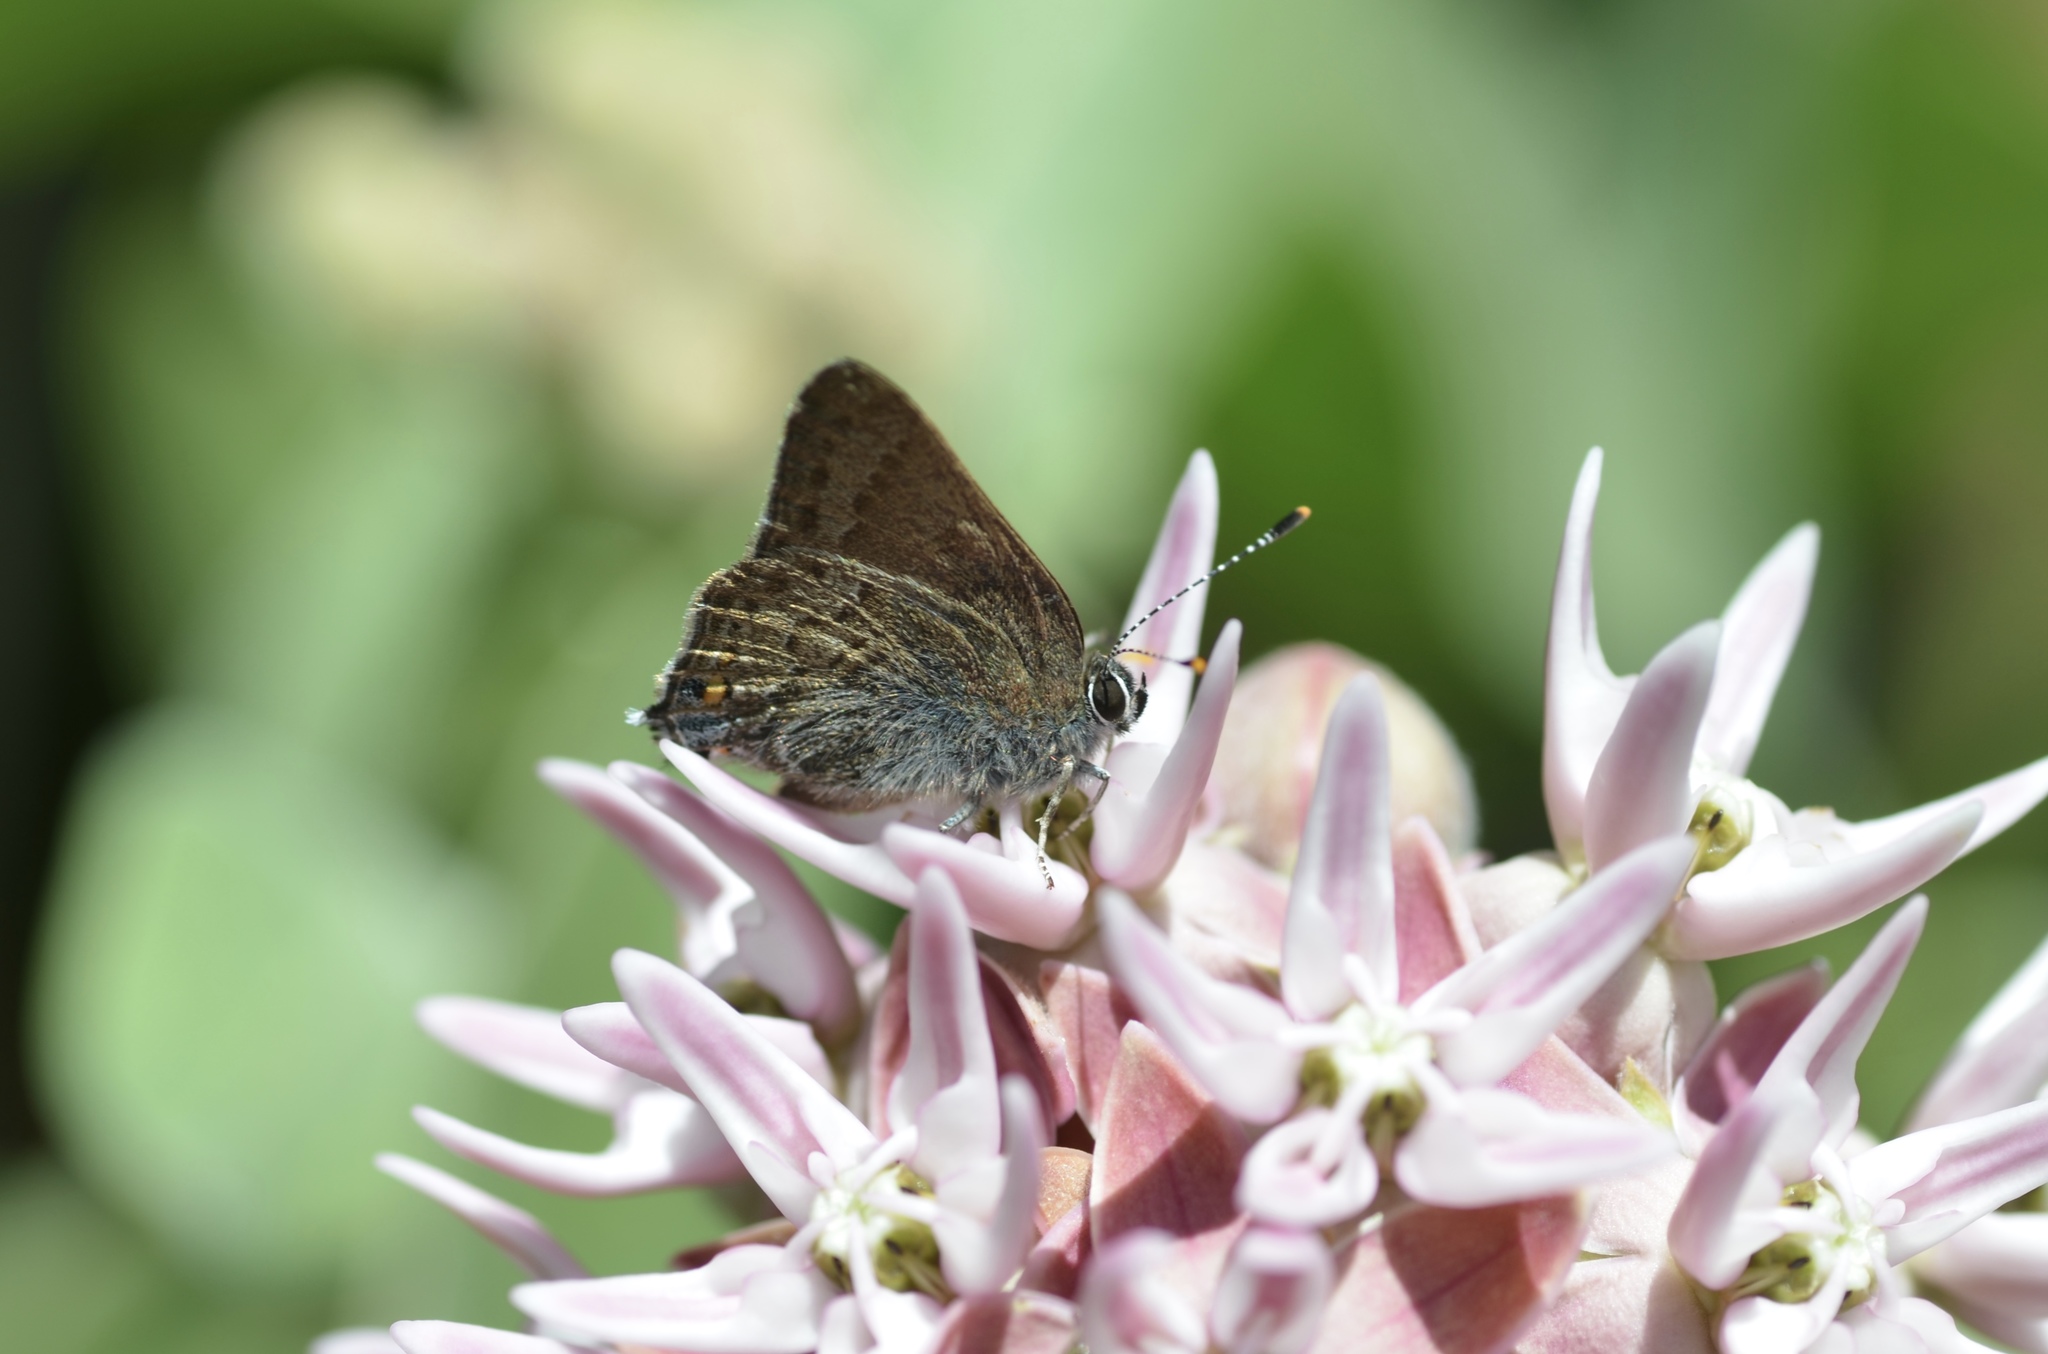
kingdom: Animalia
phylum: Arthropoda
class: Insecta
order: Lepidoptera
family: Lycaenidae
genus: Satyrium
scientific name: Satyrium calanus
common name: Banded hairstreak
